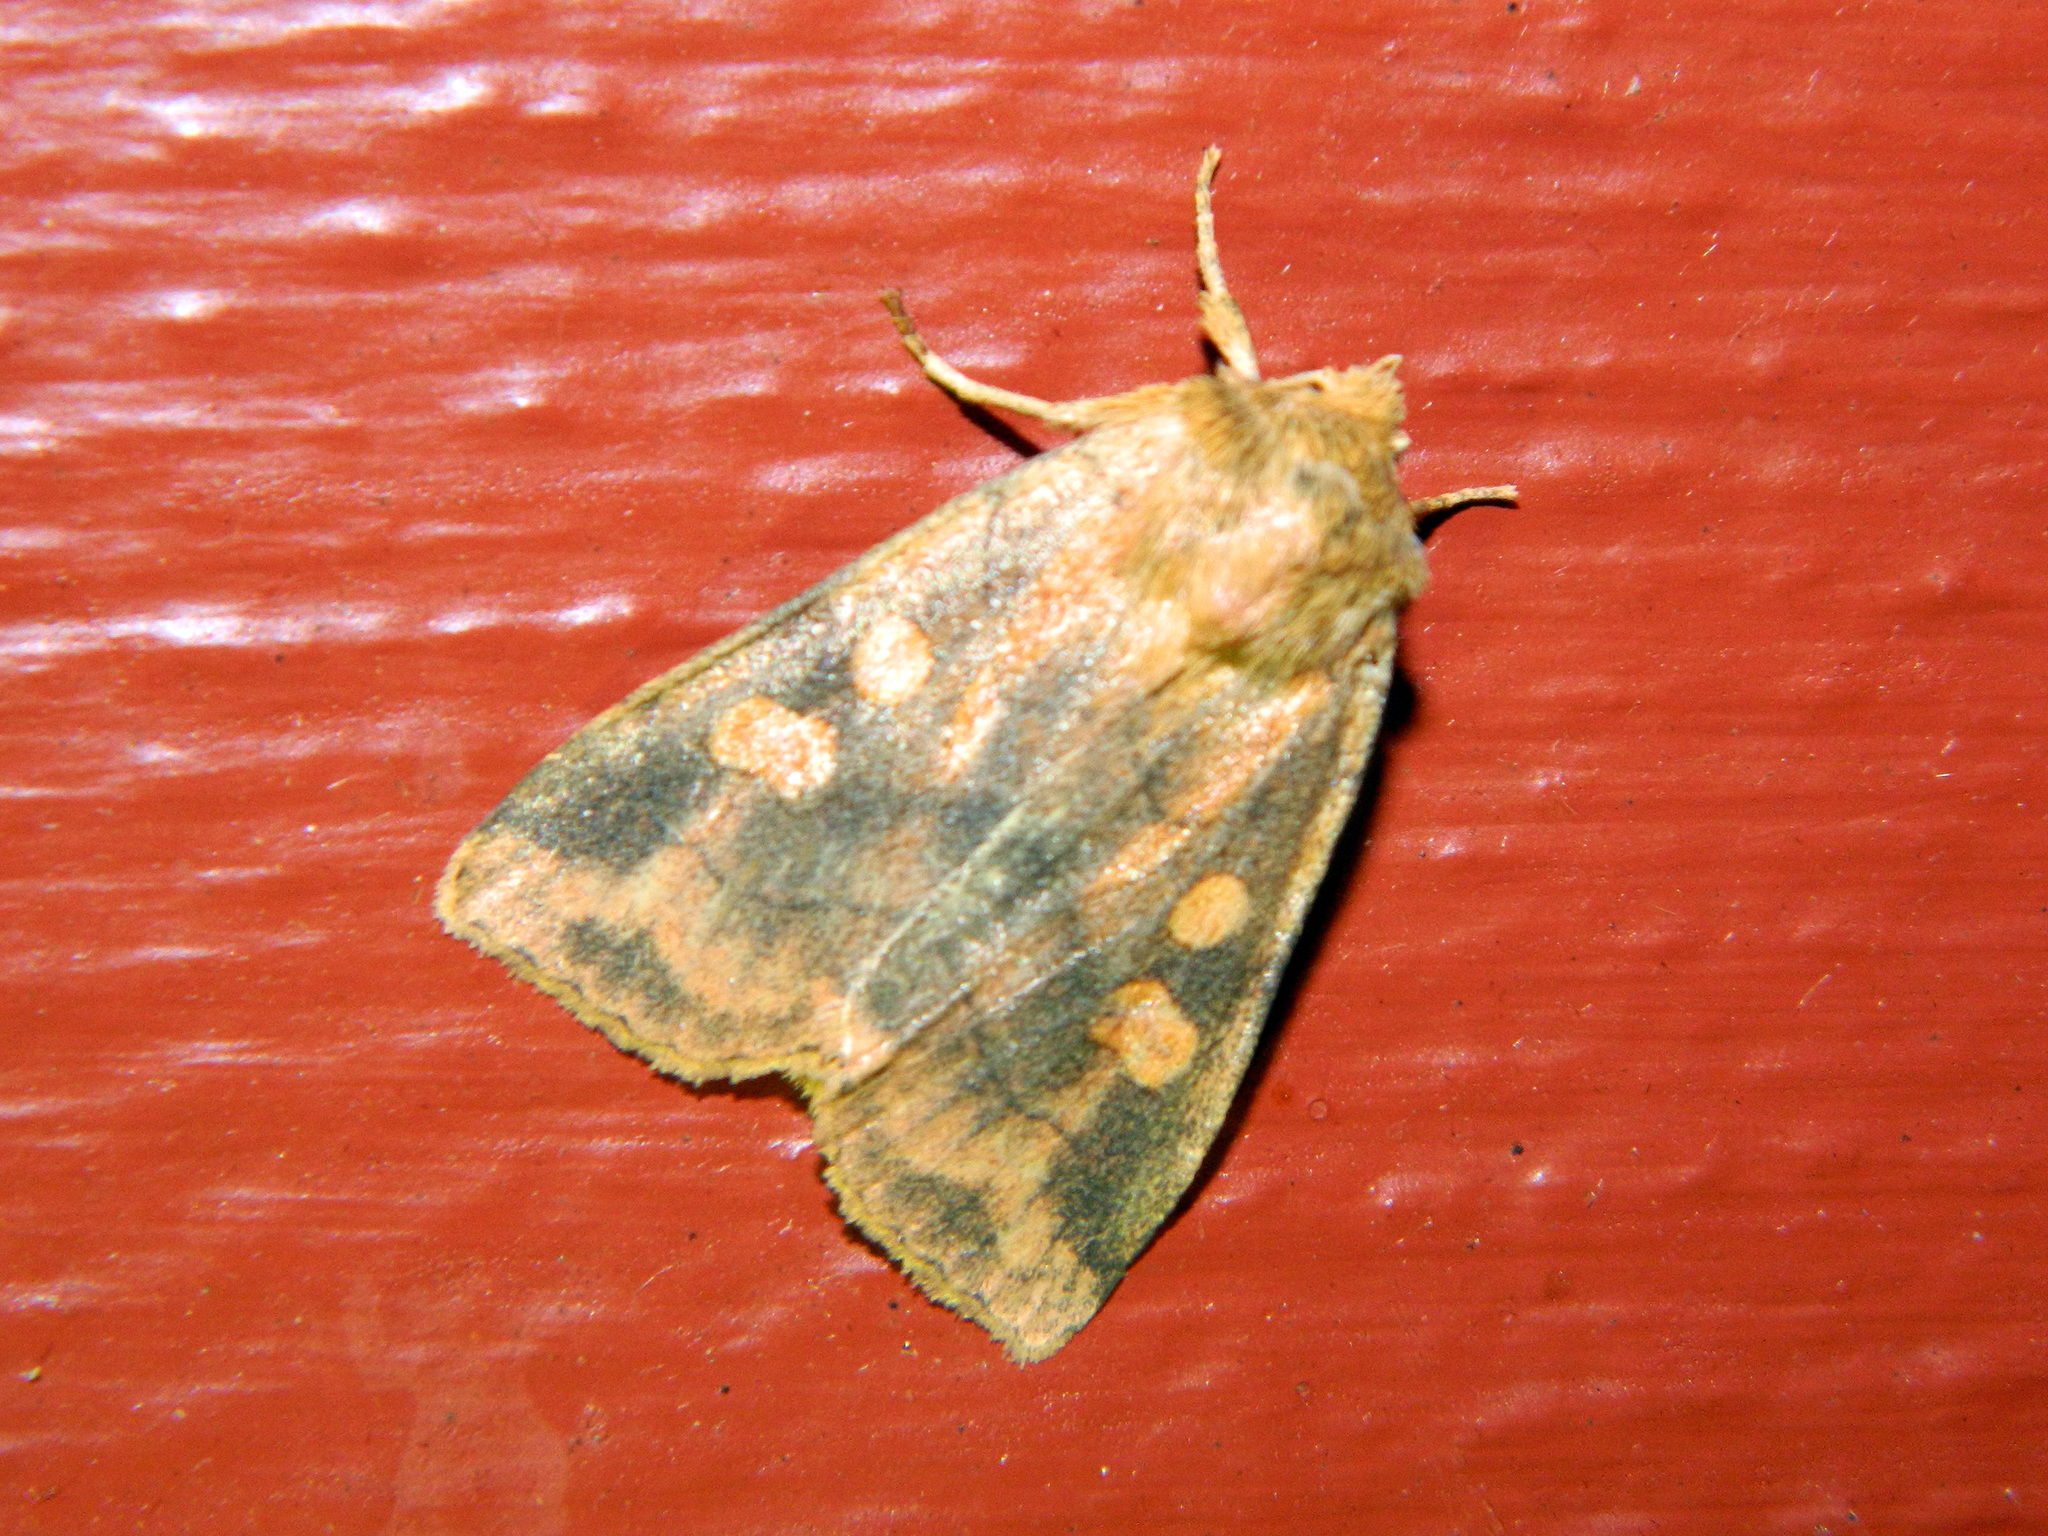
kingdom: Animalia
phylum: Arthropoda
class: Insecta
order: Lepidoptera
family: Noctuidae
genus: Enargia
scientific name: Enargia decolor
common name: Aspen twoleaf tier moth
